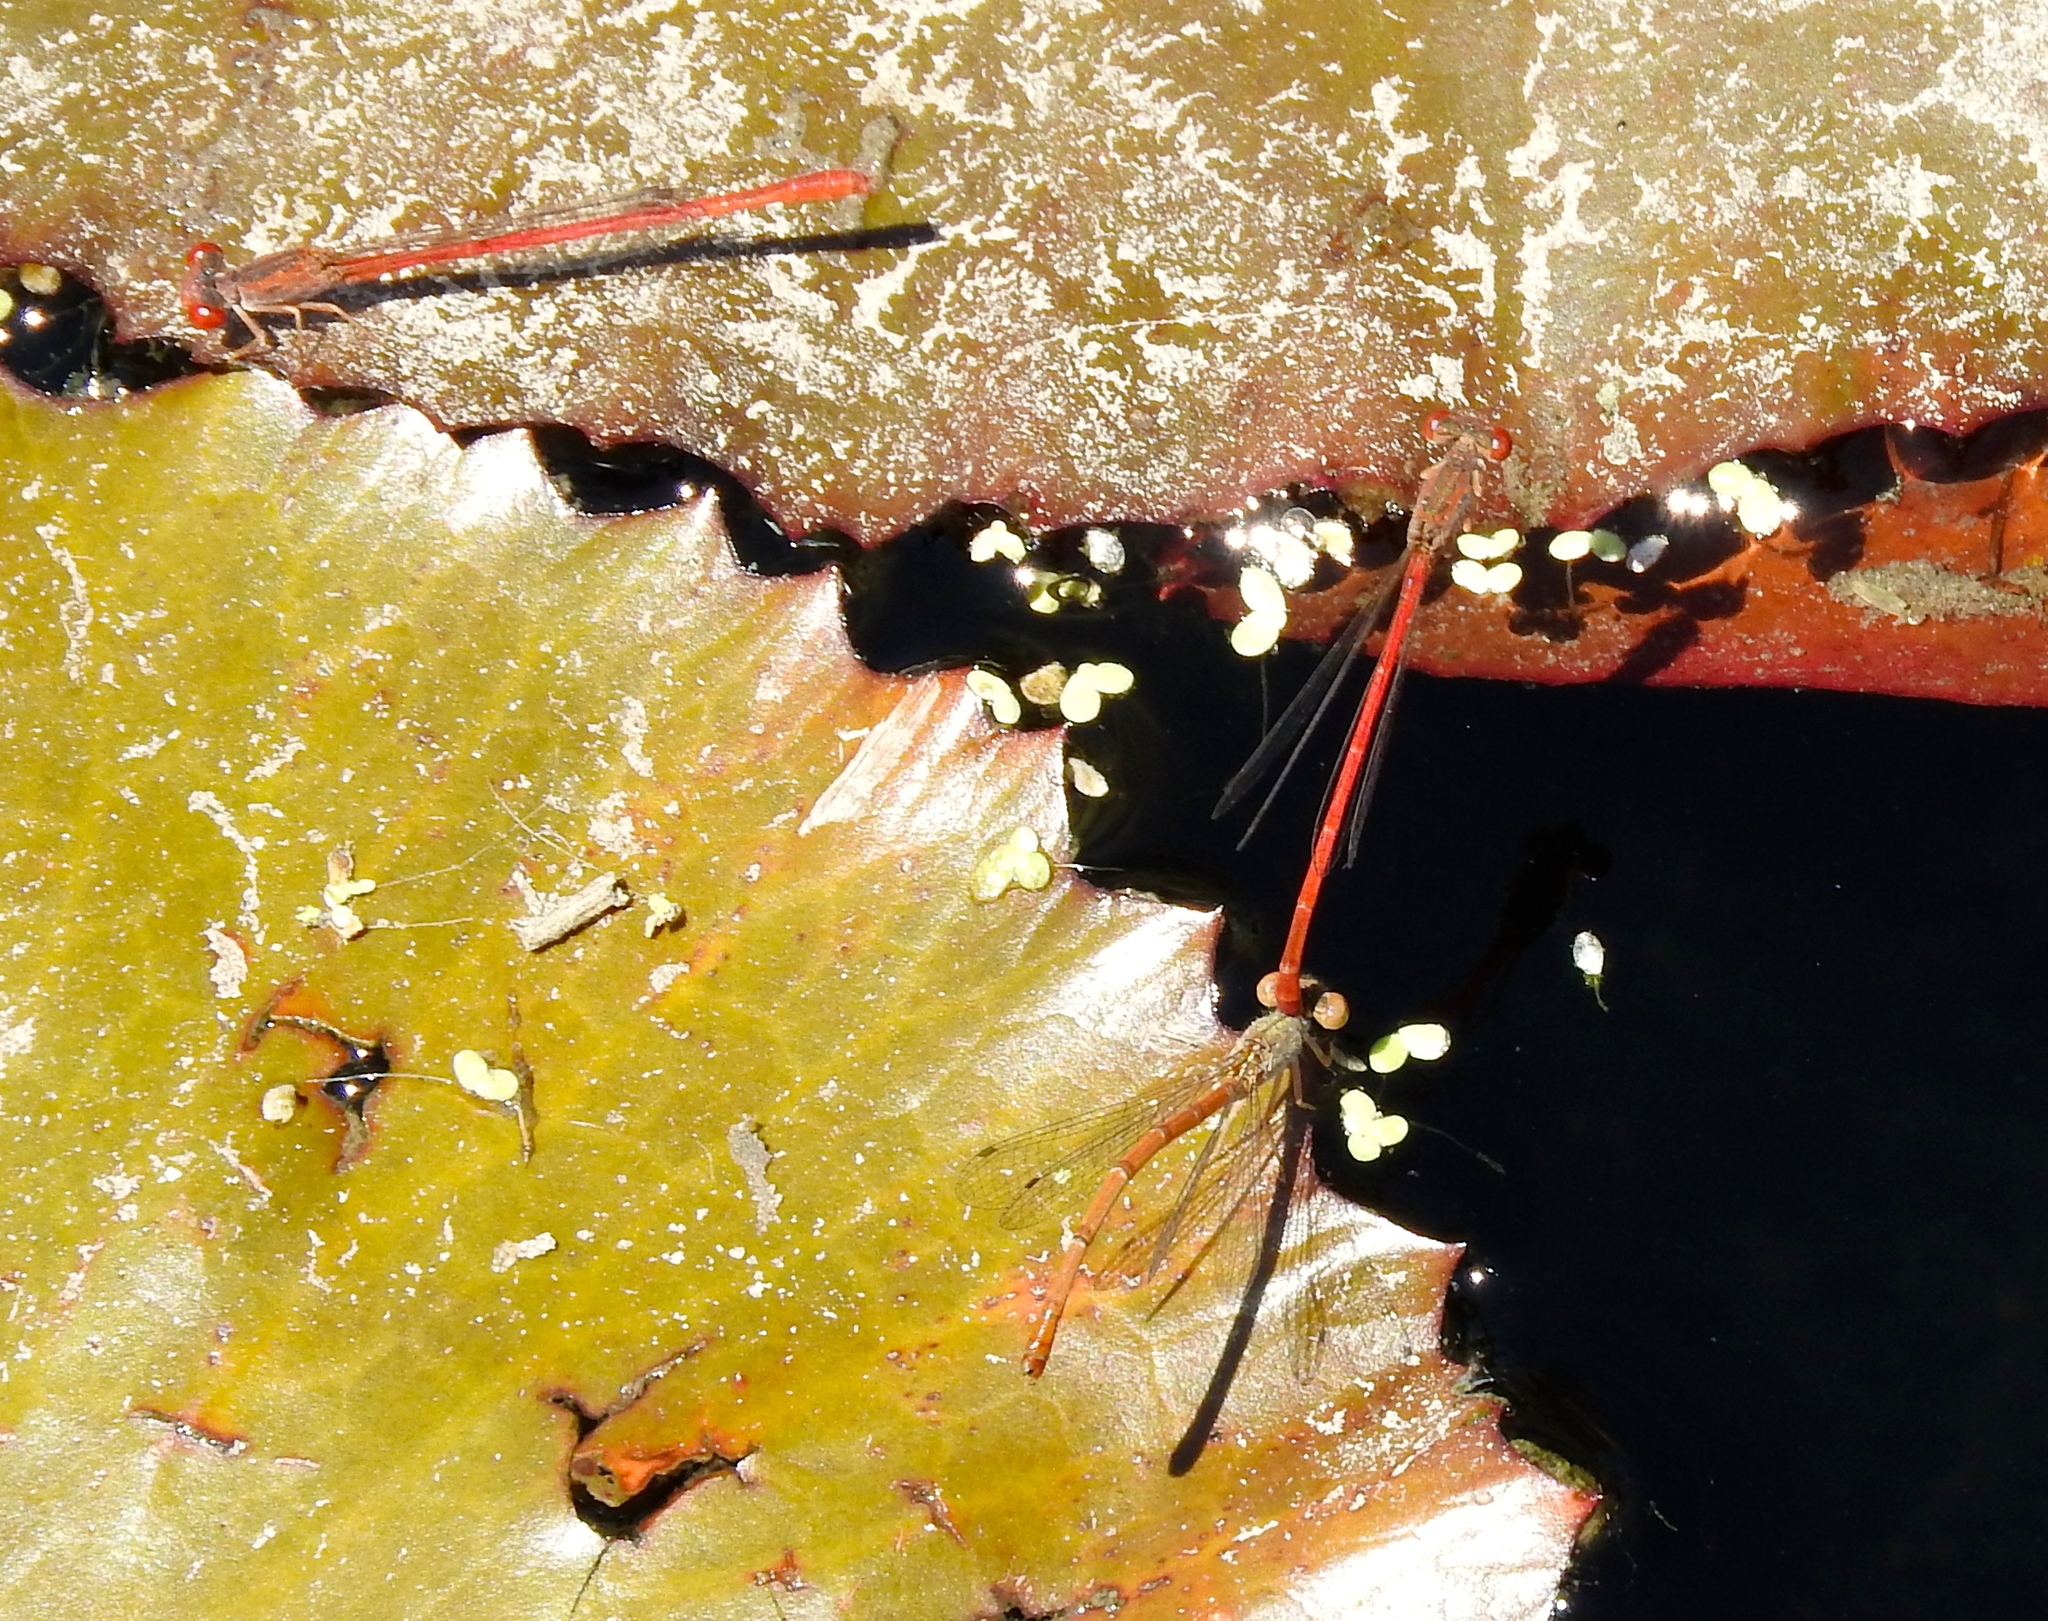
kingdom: Animalia
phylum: Arthropoda
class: Insecta
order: Odonata
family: Coenagrionidae
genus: Telebasis
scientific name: Telebasis salva
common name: Desert firetail
